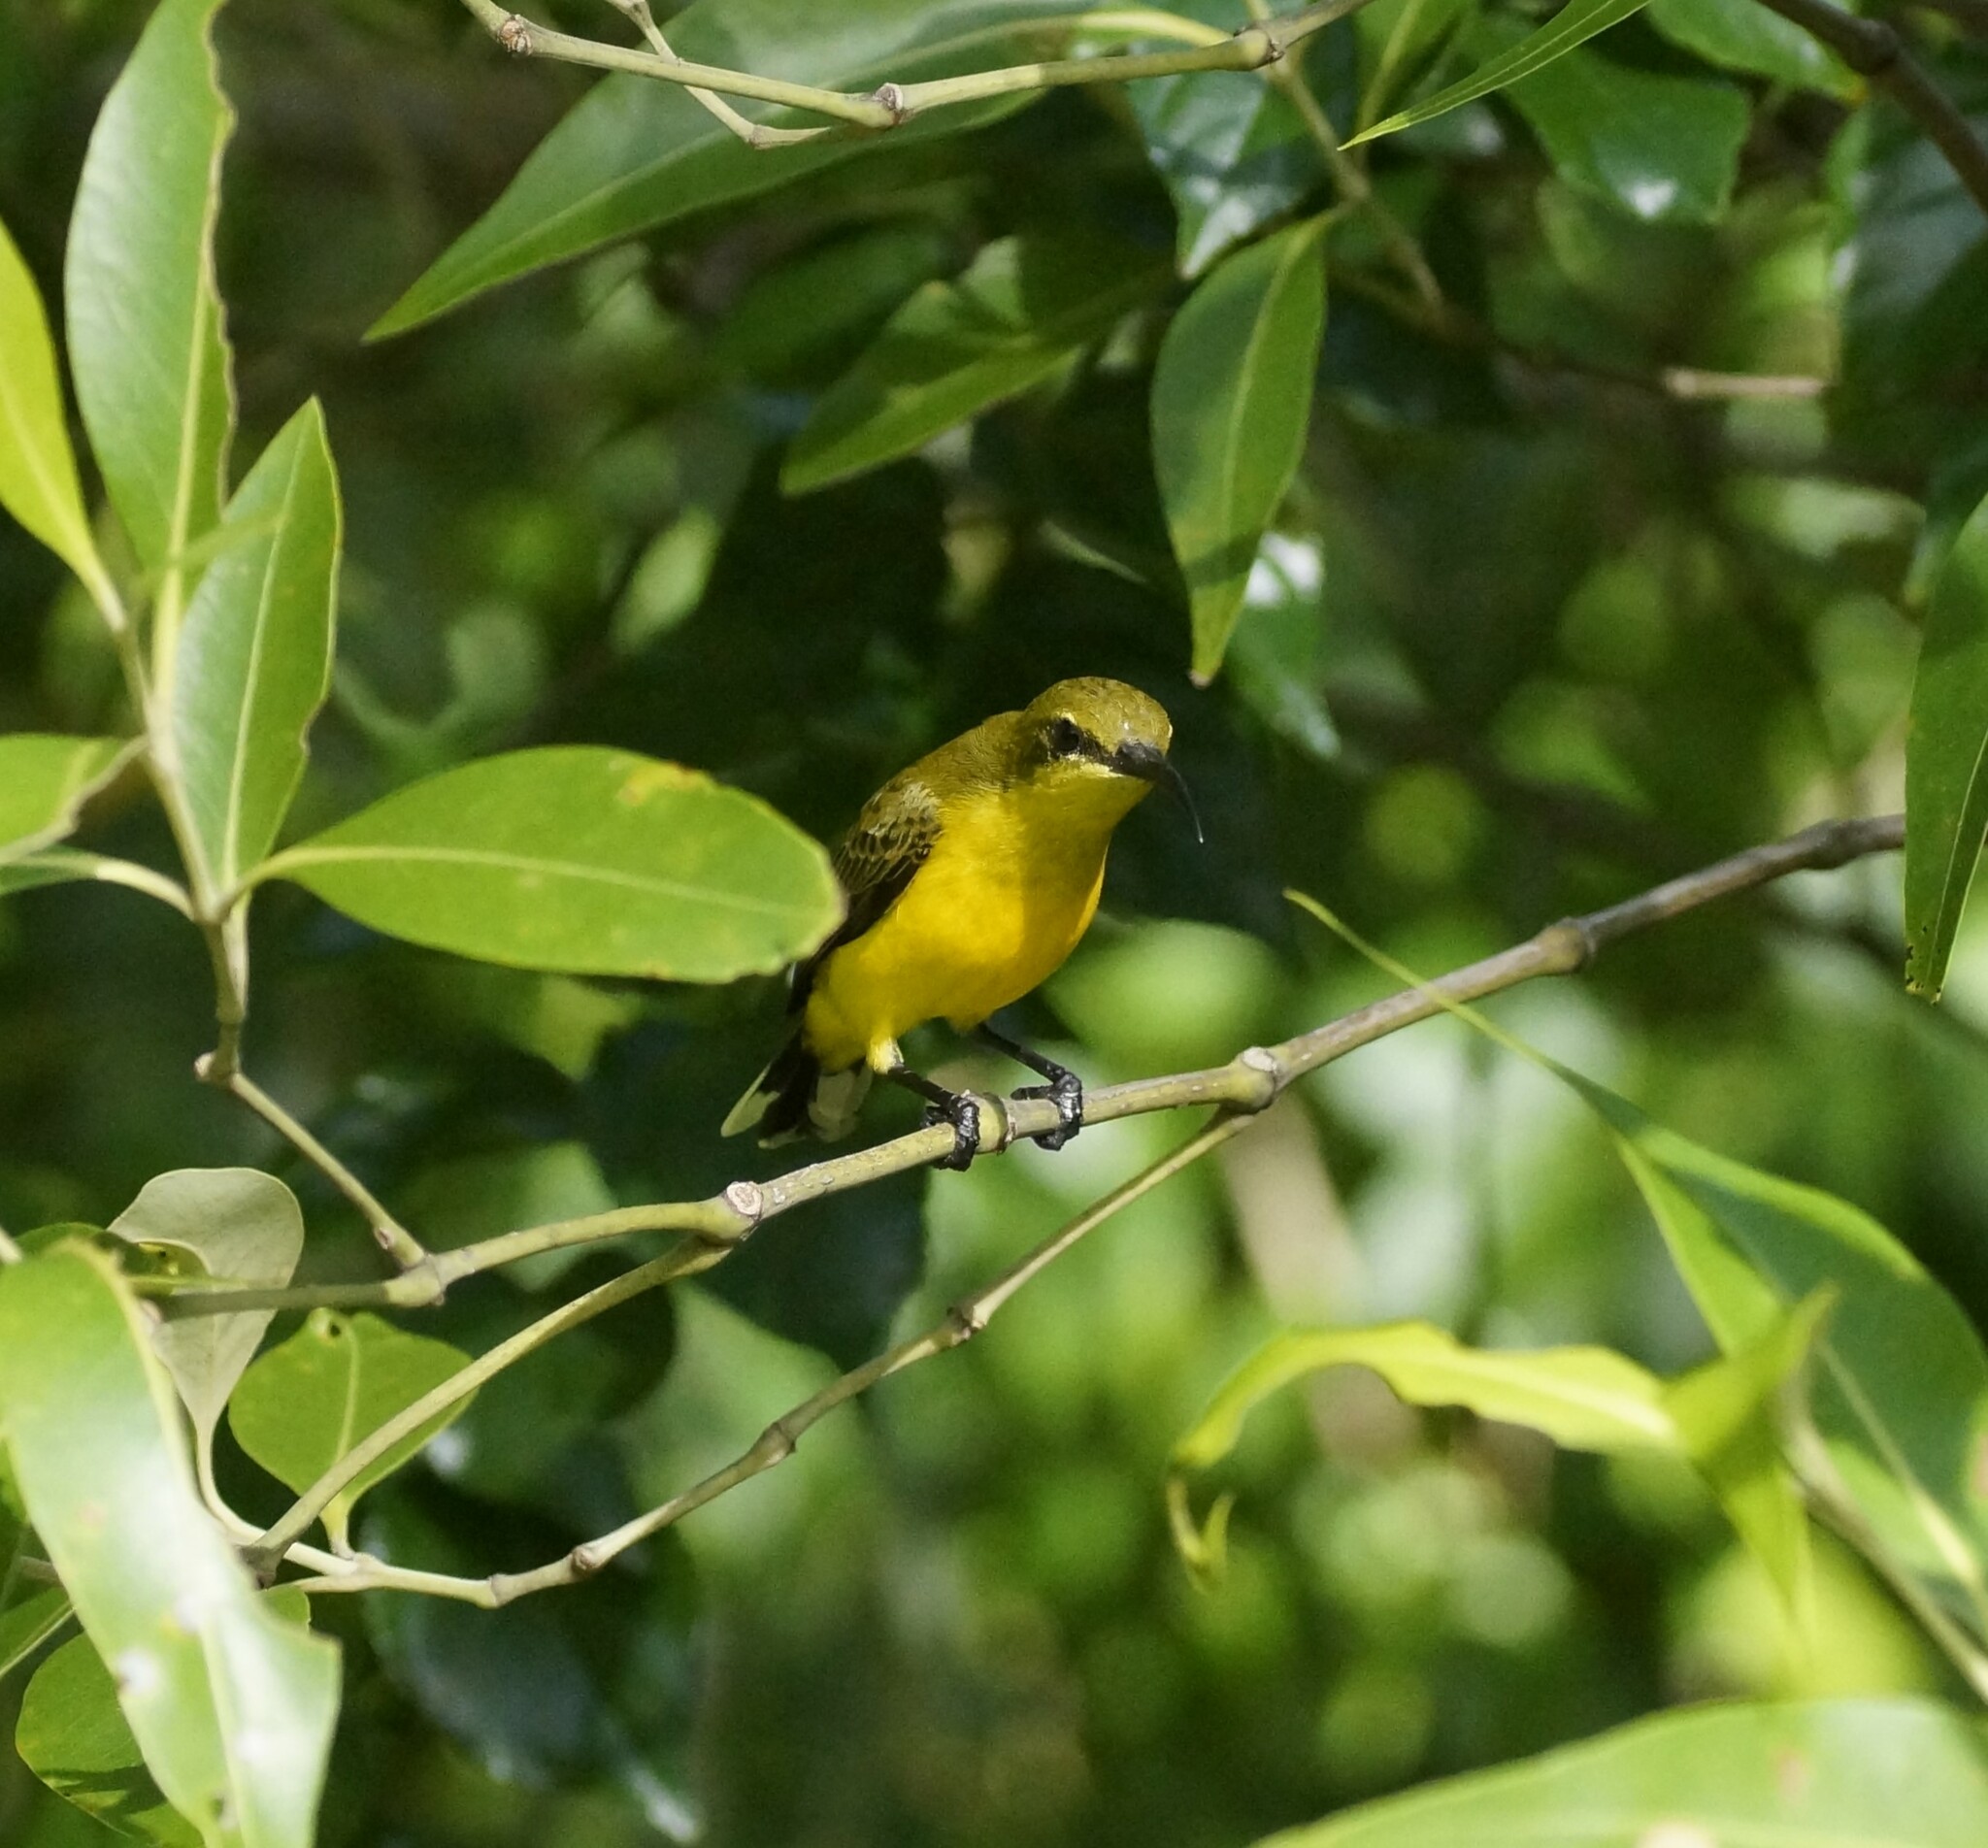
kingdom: Animalia
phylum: Chordata
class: Aves
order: Passeriformes
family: Nectariniidae
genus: Cinnyris
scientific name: Cinnyris
